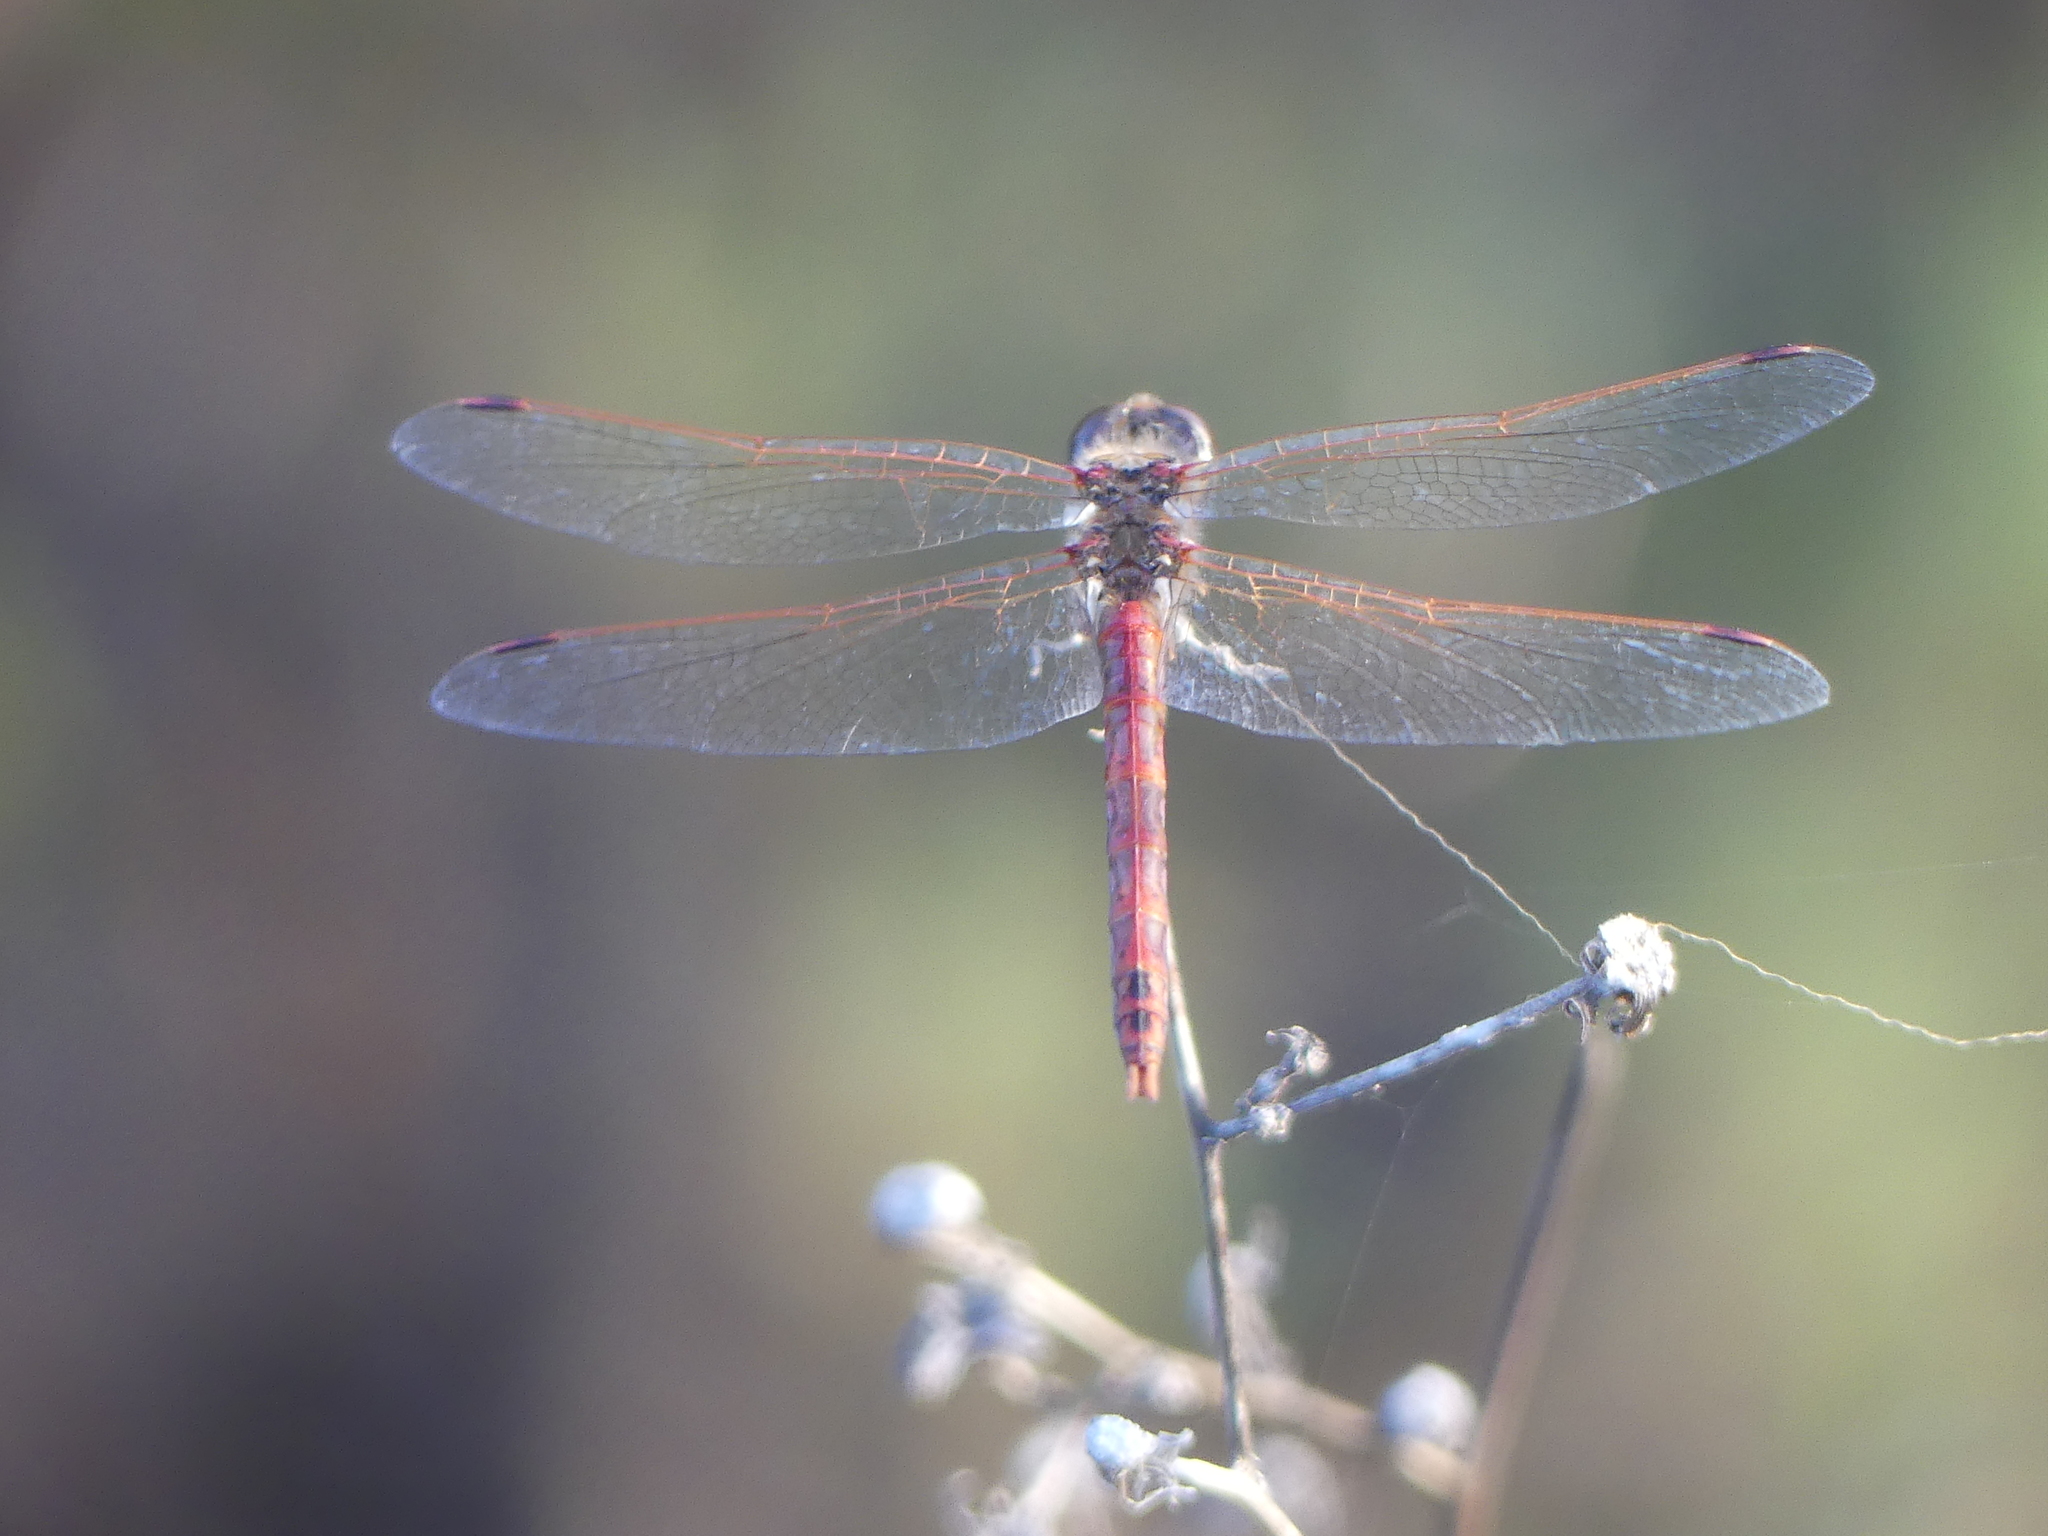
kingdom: Animalia
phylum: Arthropoda
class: Insecta
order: Odonata
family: Libellulidae
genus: Sympetrum
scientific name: Sympetrum corruptum
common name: Variegated meadowhawk
